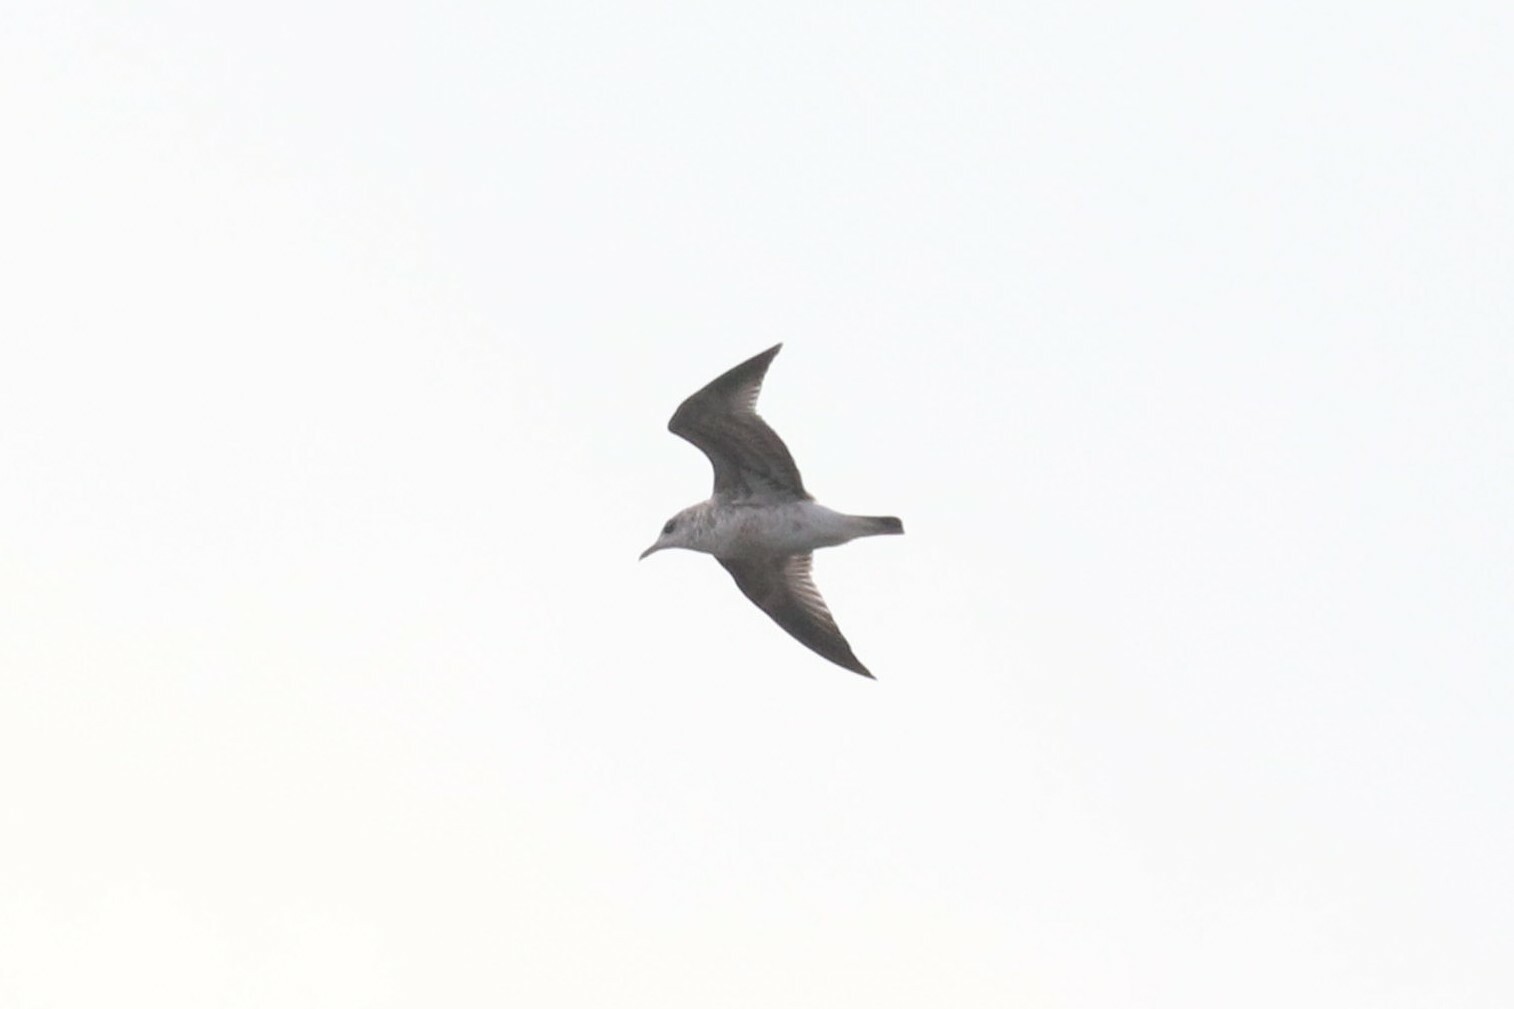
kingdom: Animalia
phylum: Chordata
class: Aves
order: Charadriiformes
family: Laridae
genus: Larus
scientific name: Larus canus
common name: Mew gull
